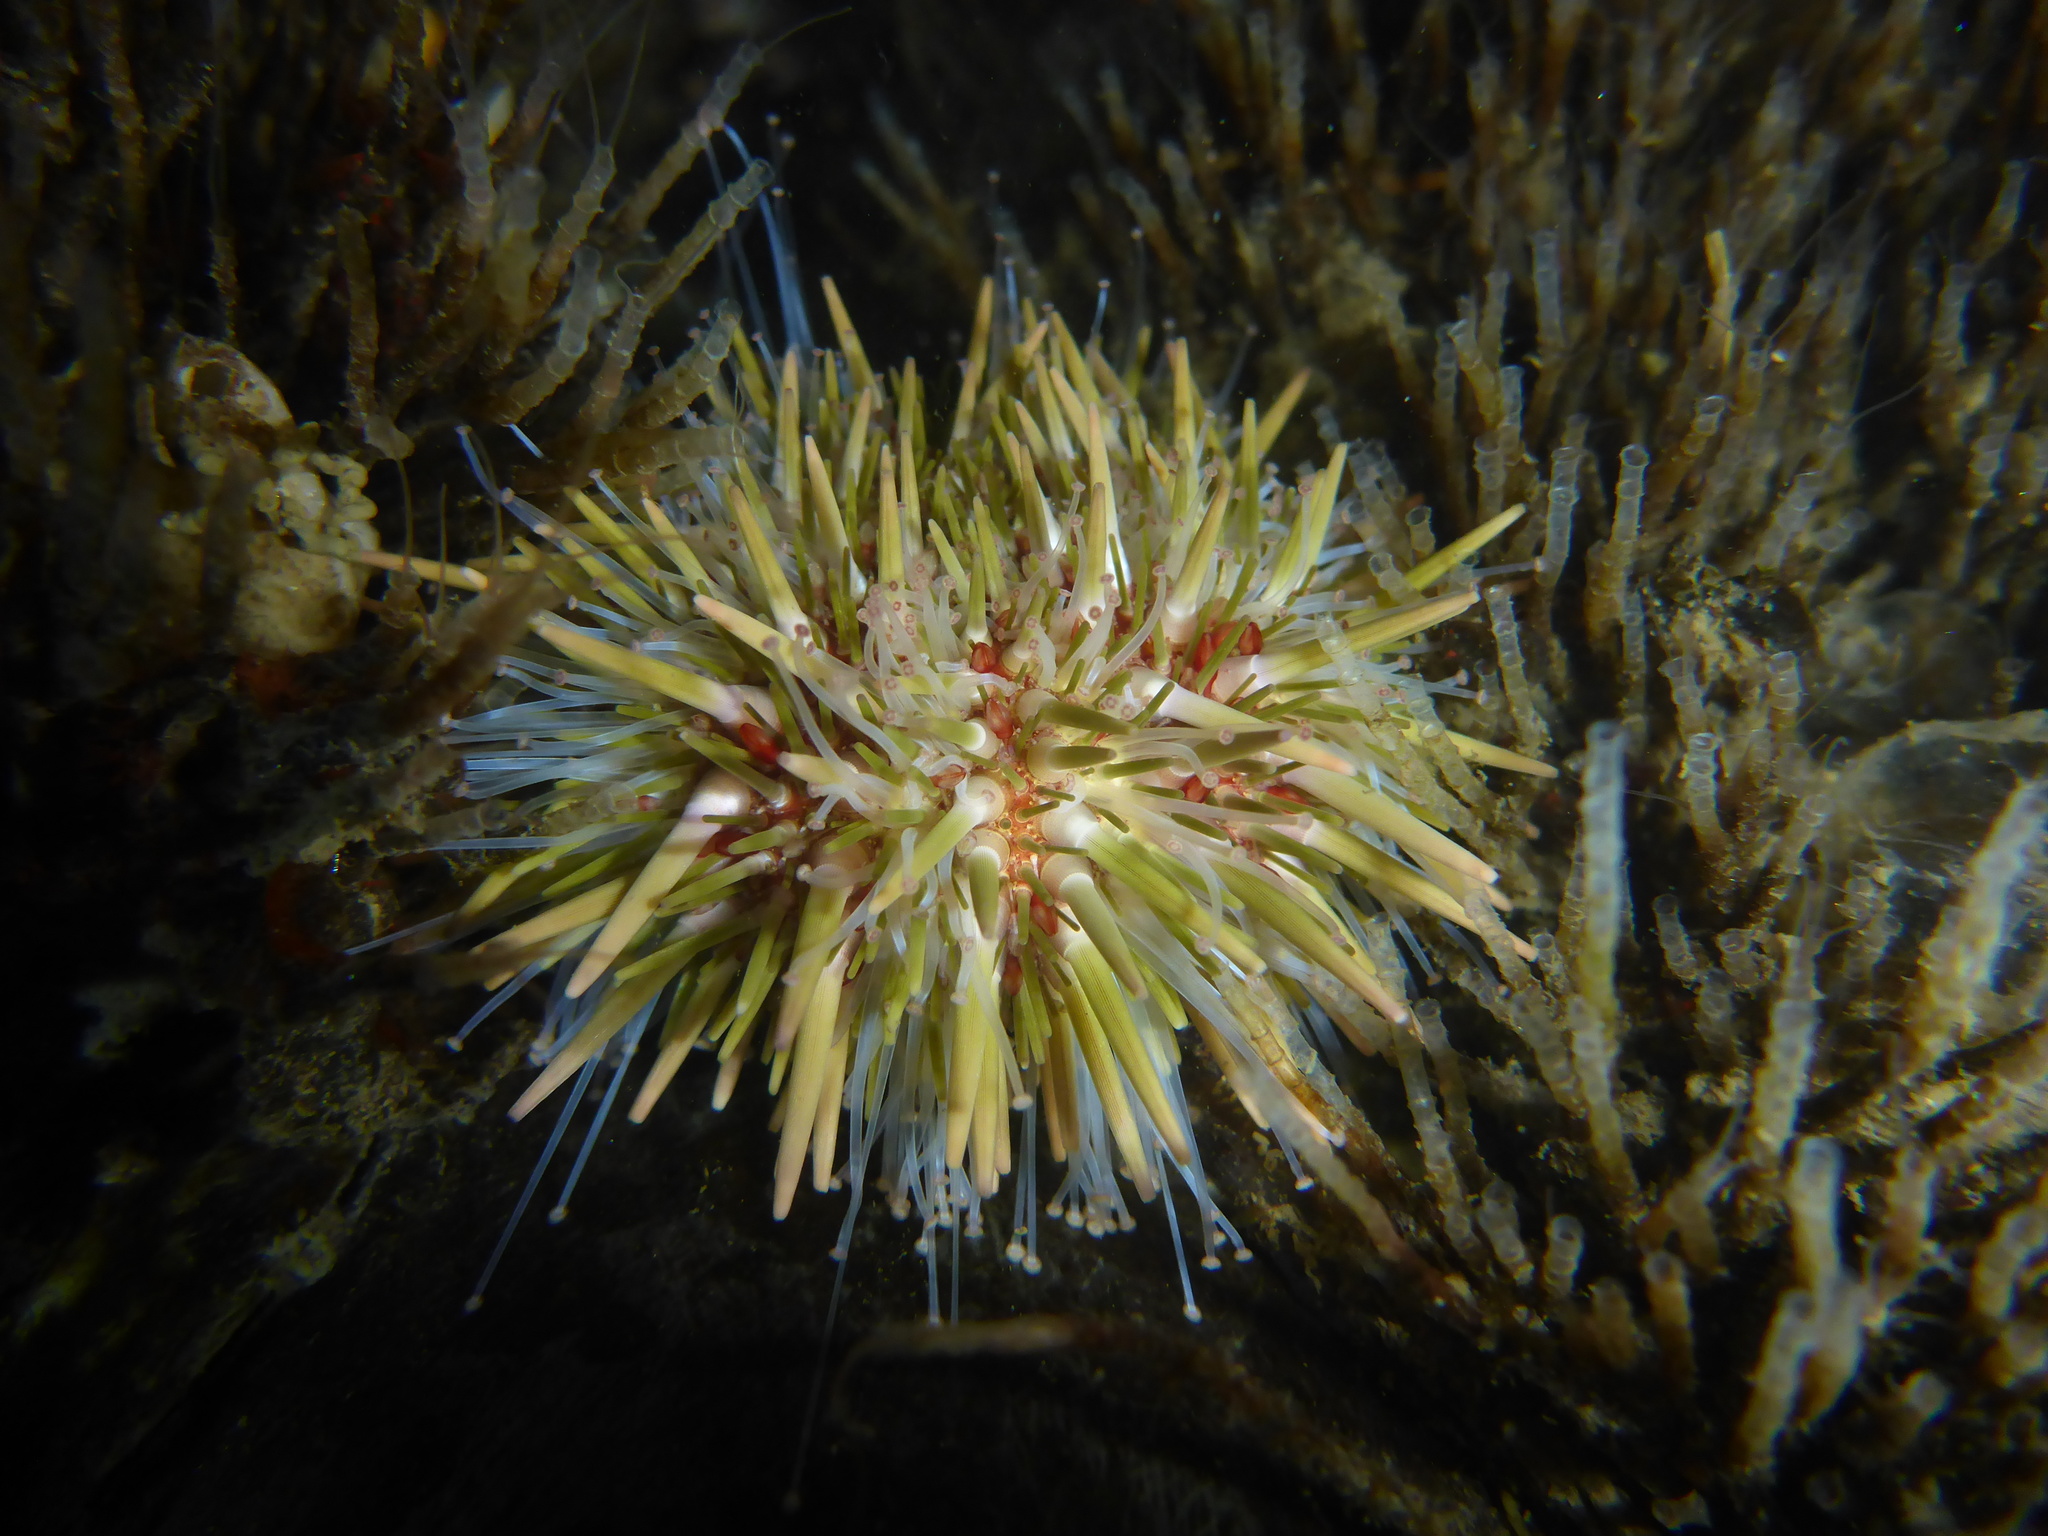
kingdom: Animalia
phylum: Echinodermata
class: Echinoidea
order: Camarodonta
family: Strongylocentrotidae
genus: Strongylocentrotus
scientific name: Strongylocentrotus purpuratus
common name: Purple sea urchin
